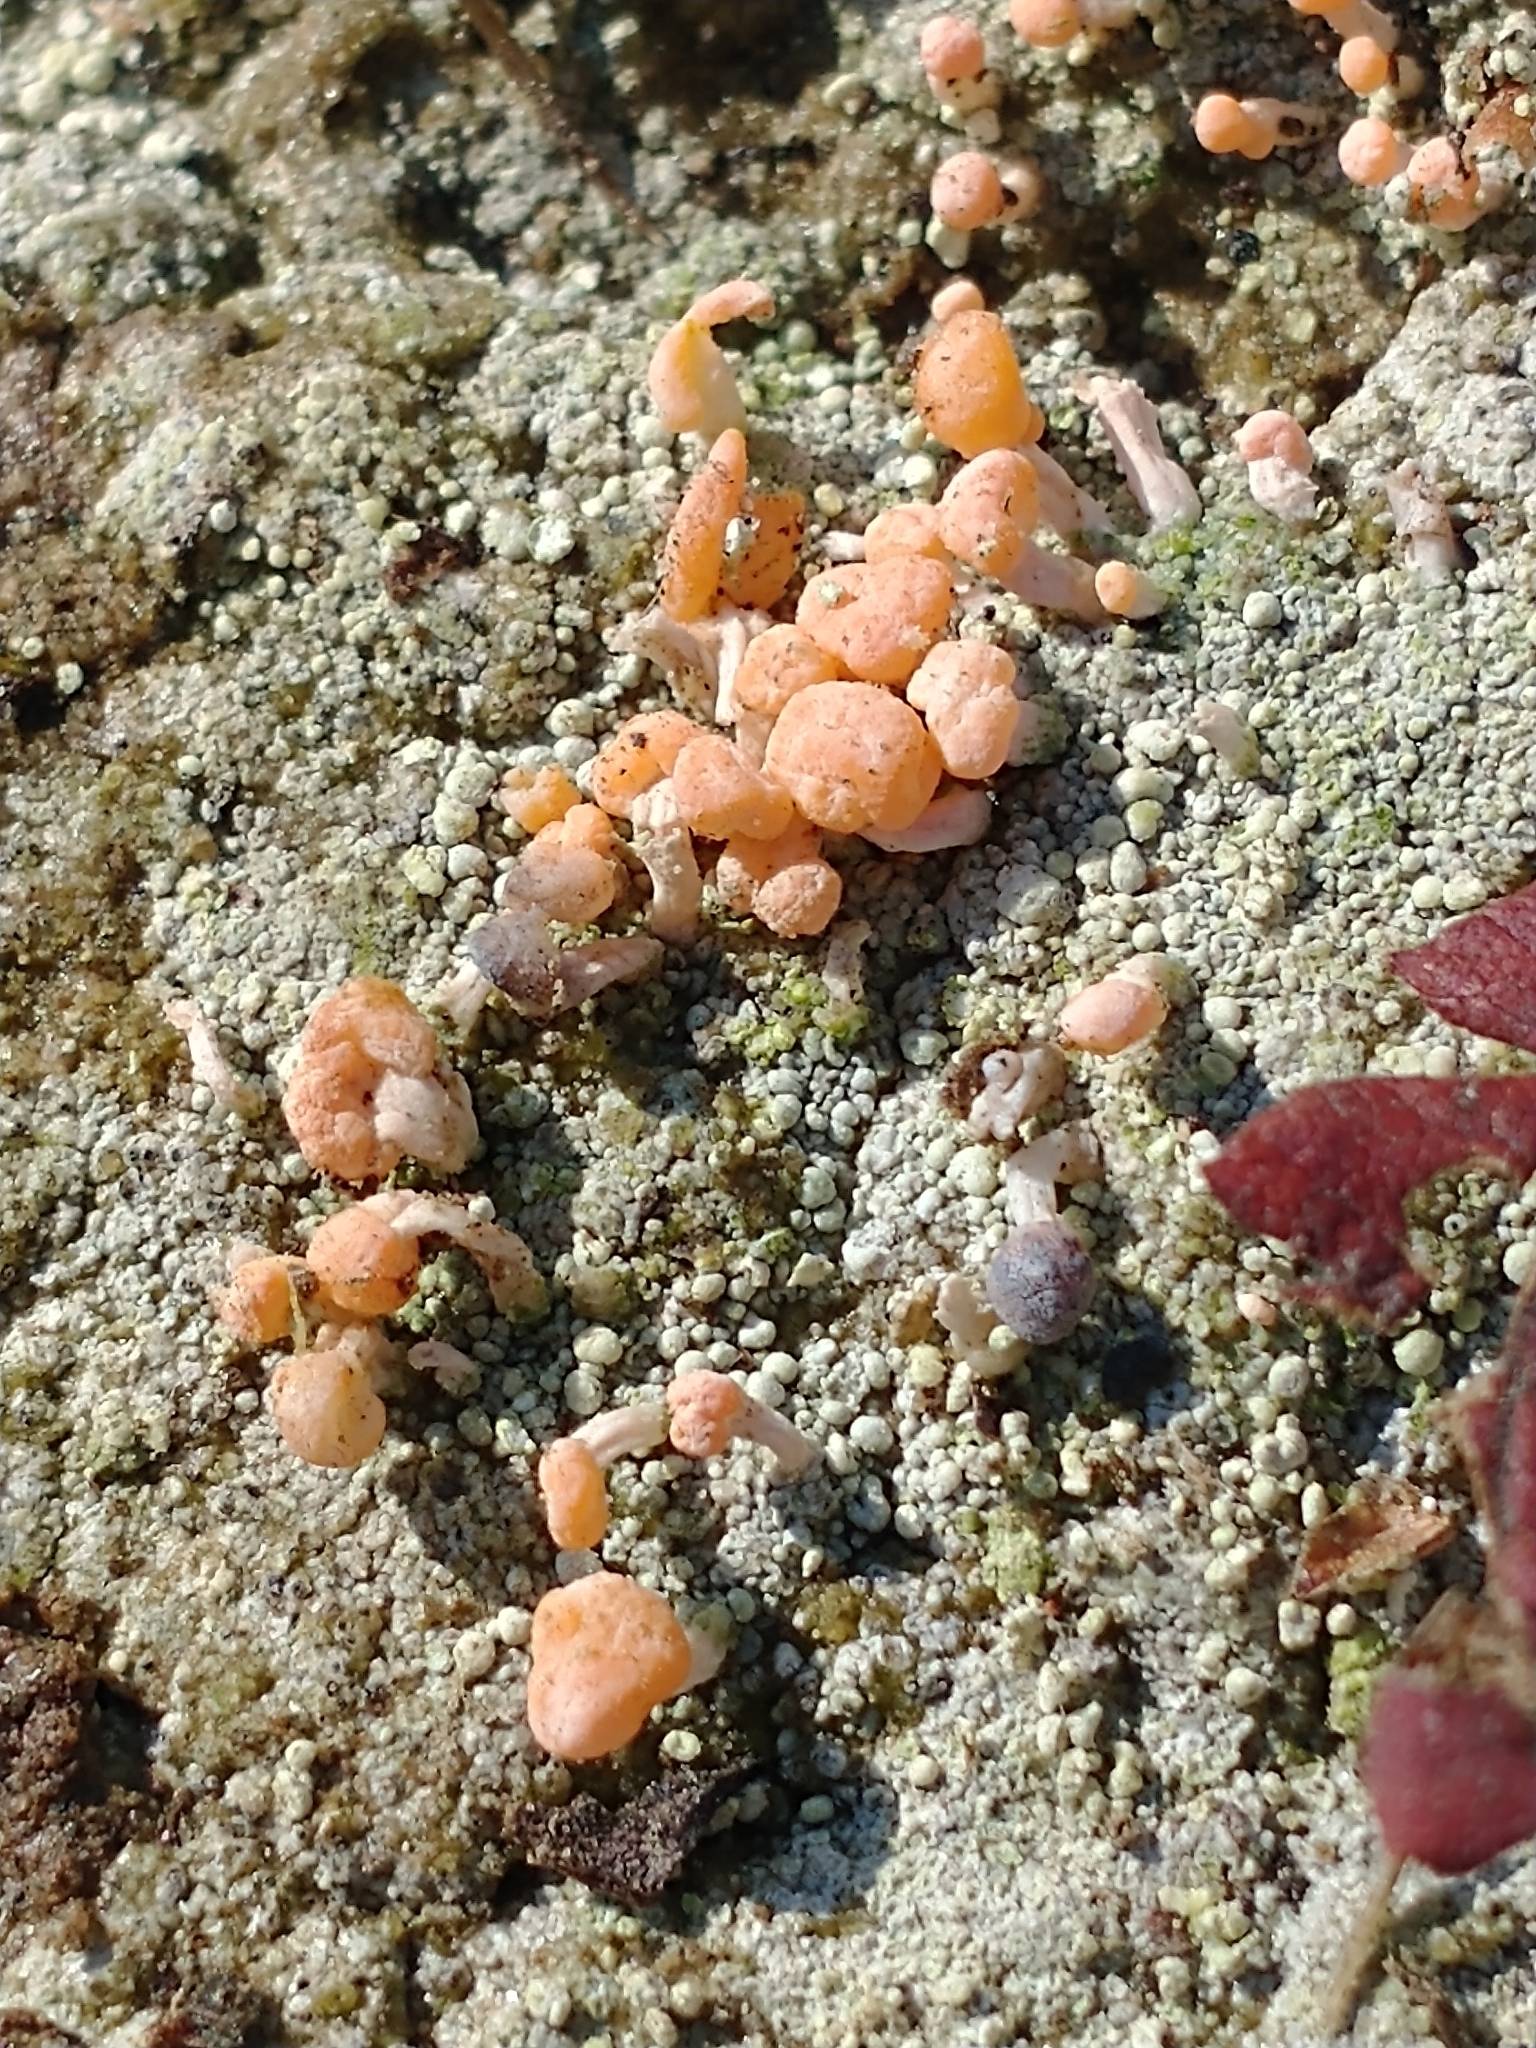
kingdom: Fungi
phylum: Ascomycota
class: Lecanoromycetes
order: Pertusariales
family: Icmadophilaceae
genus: Dibaeis
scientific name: Dibaeis baeomyces
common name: Pink earth lichen
